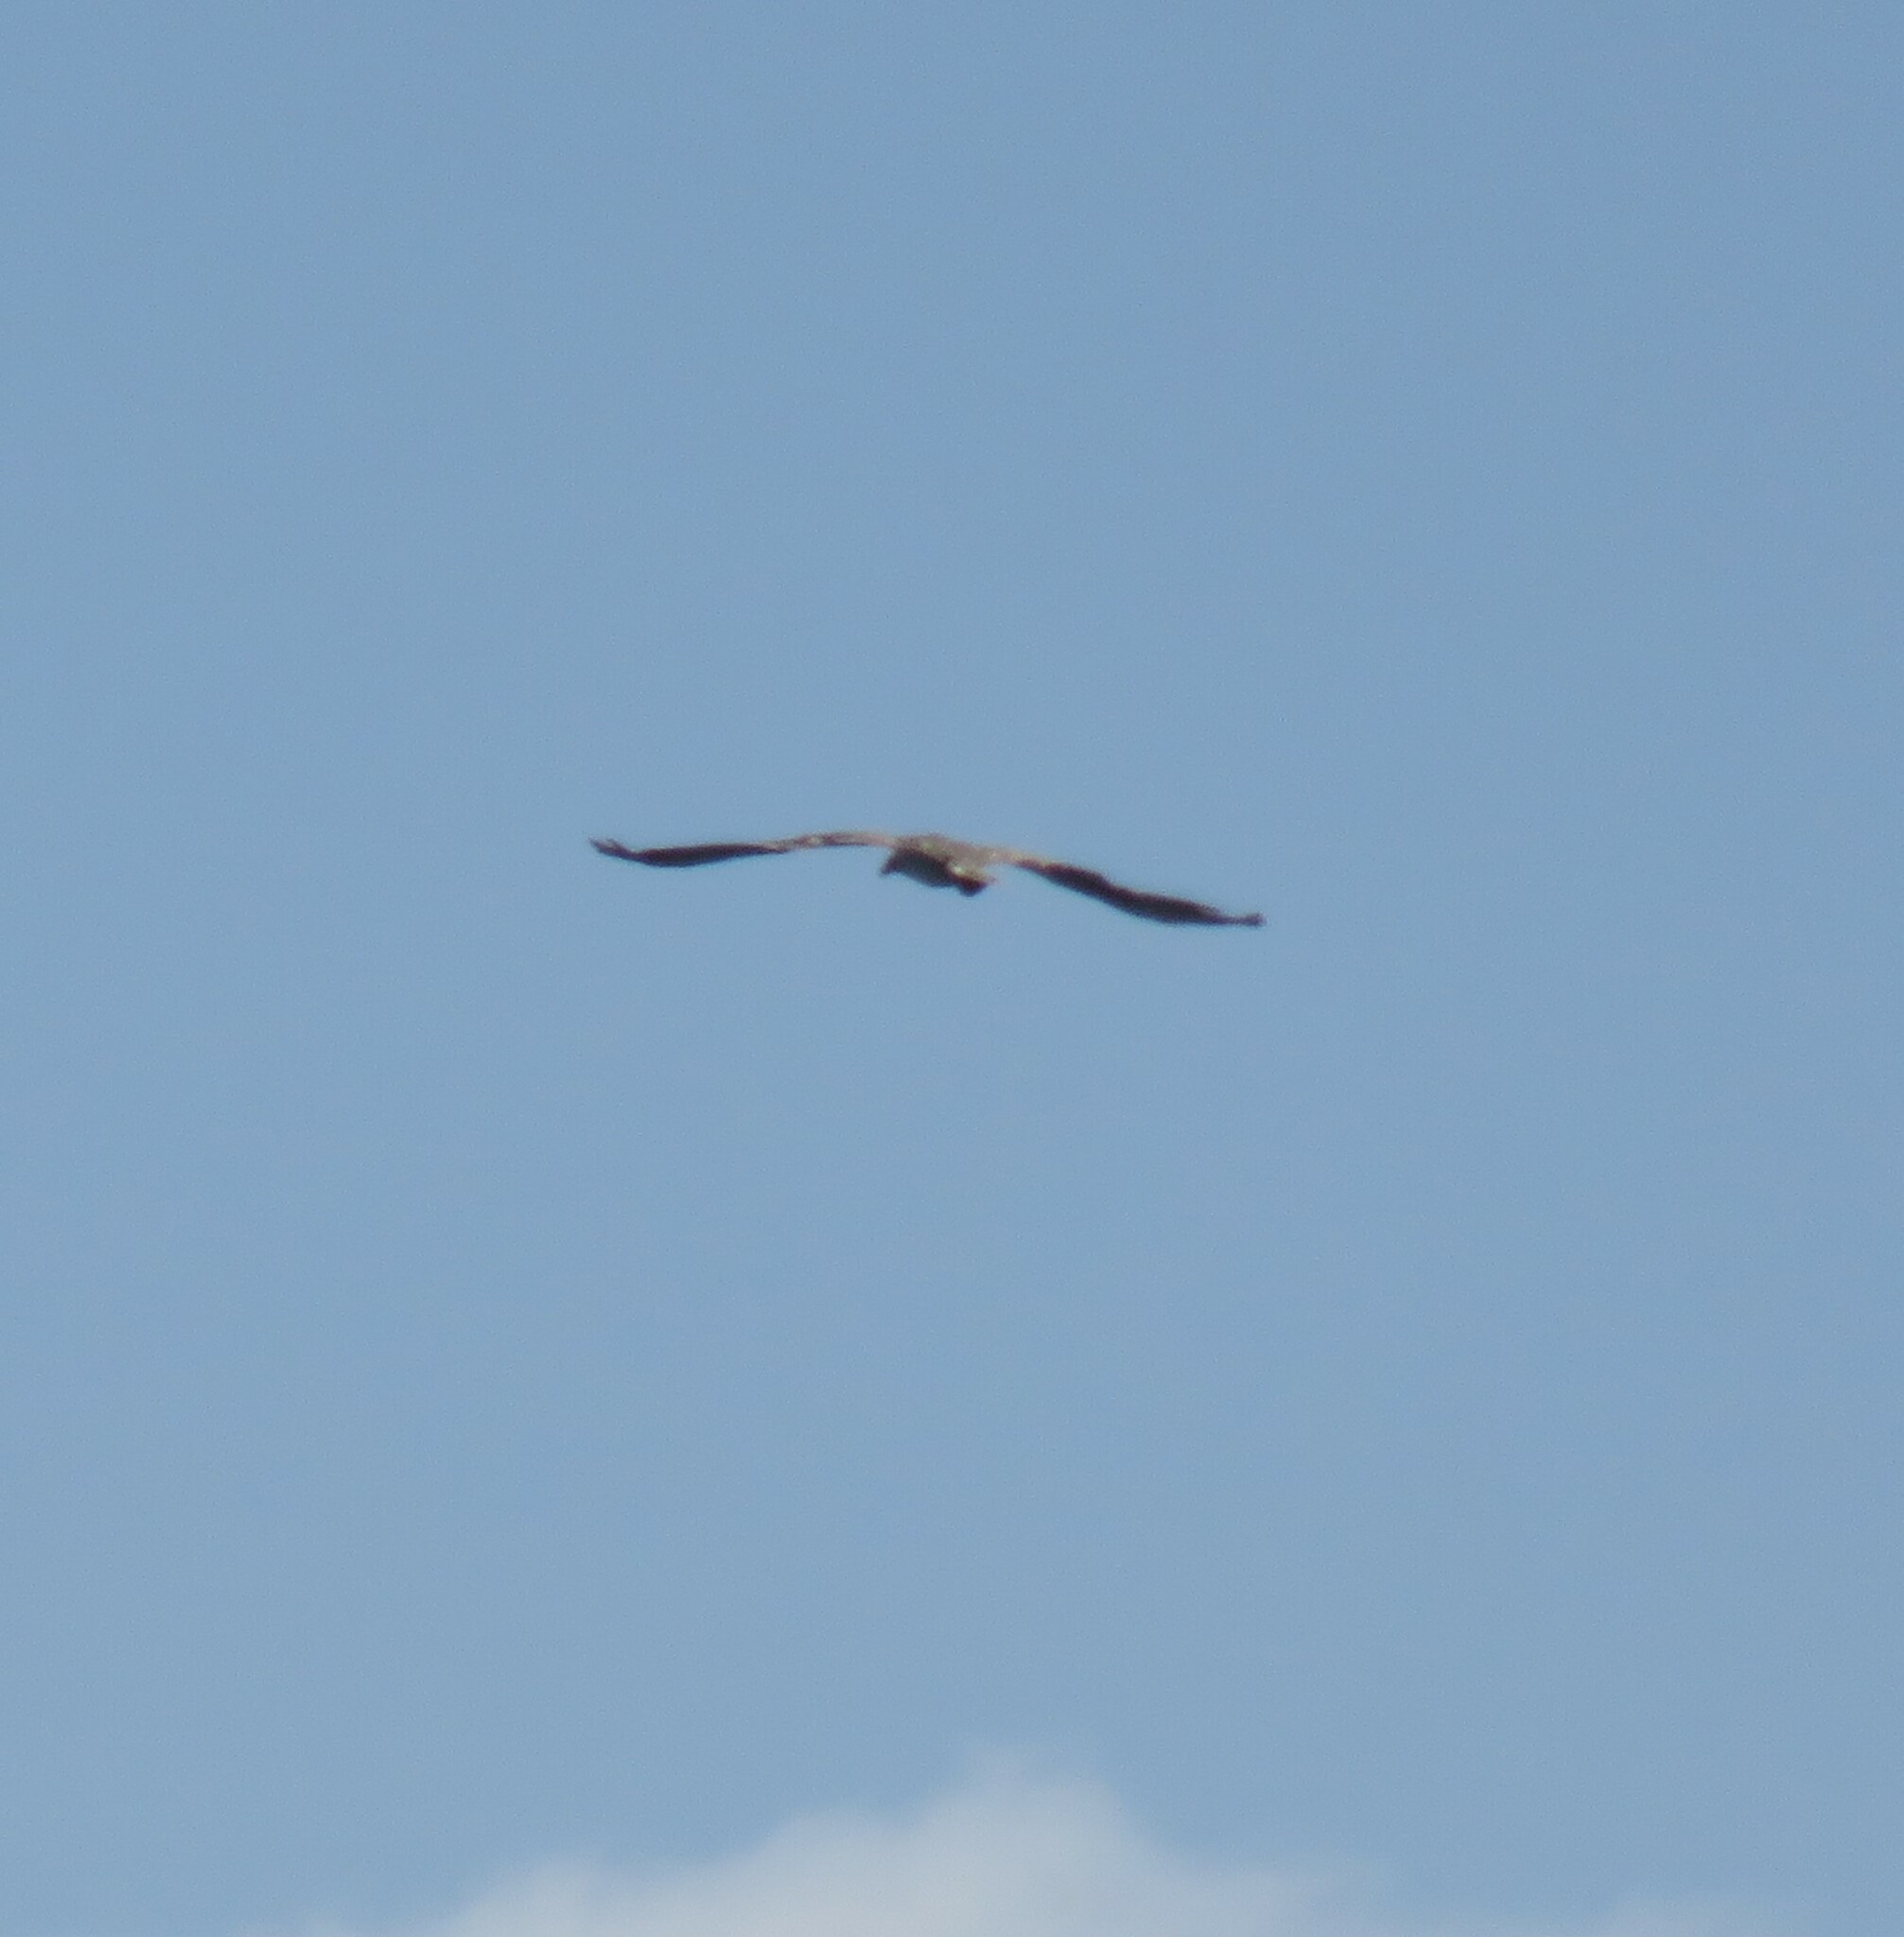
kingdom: Animalia
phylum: Chordata
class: Aves
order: Accipitriformes
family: Pandionidae
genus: Pandion
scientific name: Pandion haliaetus
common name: Osprey
